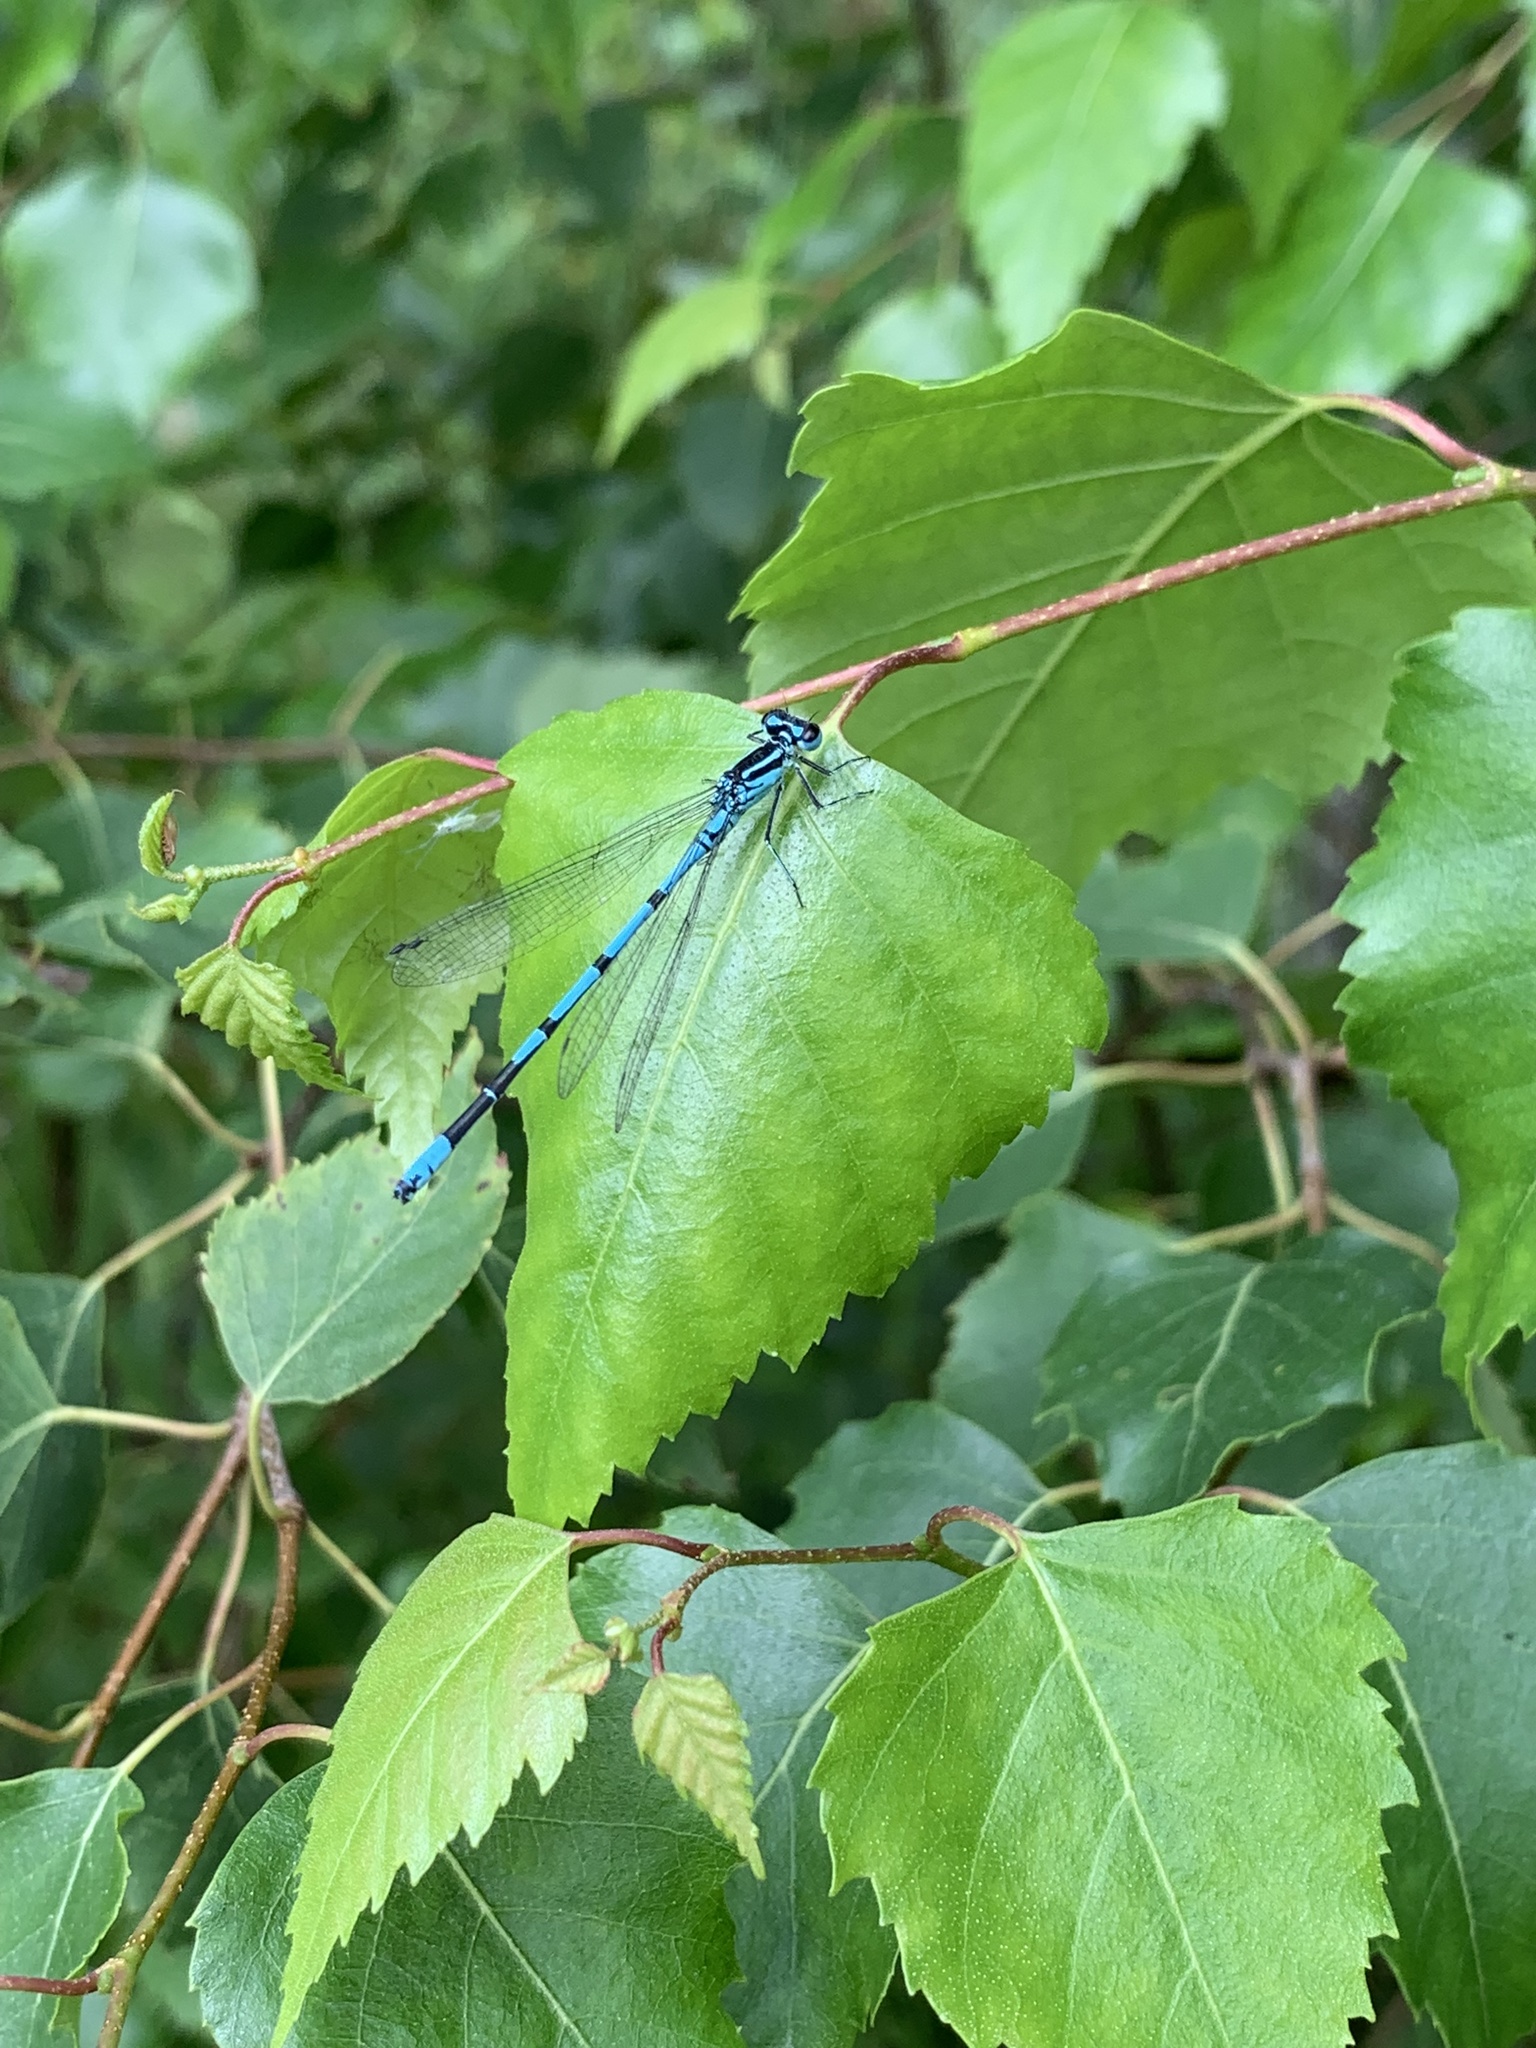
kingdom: Animalia
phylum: Arthropoda
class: Insecta
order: Odonata
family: Coenagrionidae
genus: Coenagrion
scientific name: Coenagrion puella
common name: Azure damselfly
